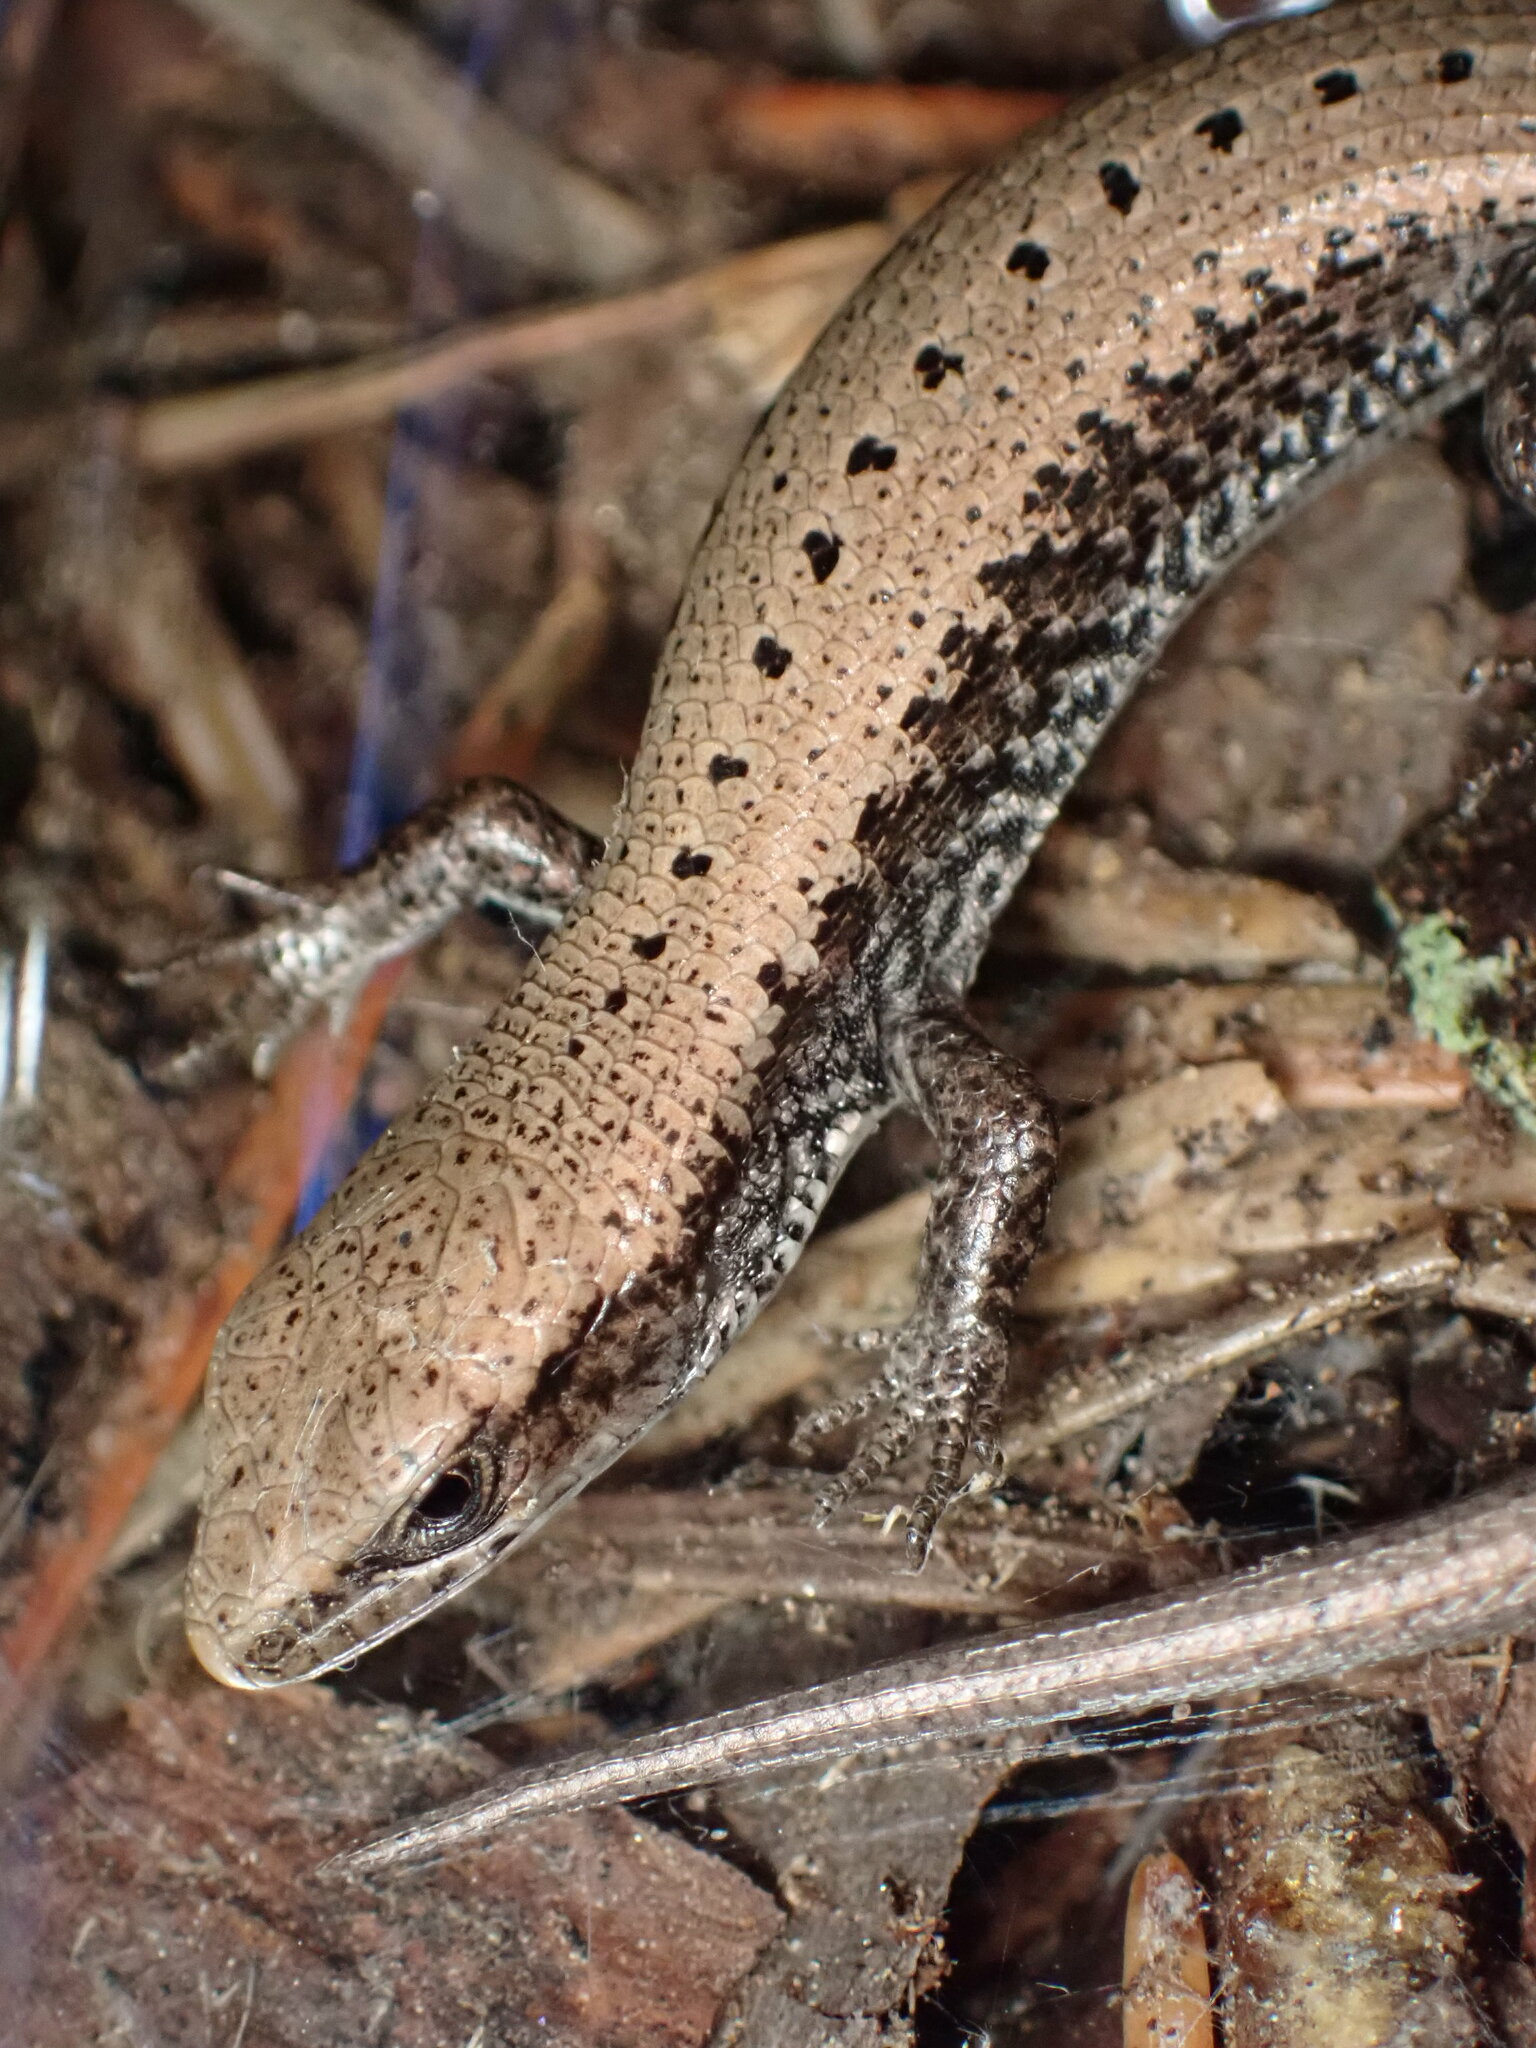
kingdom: Animalia
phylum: Chordata
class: Squamata
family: Anguidae
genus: Elgaria
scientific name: Elgaria coerulea
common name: Northern alligator lizard
